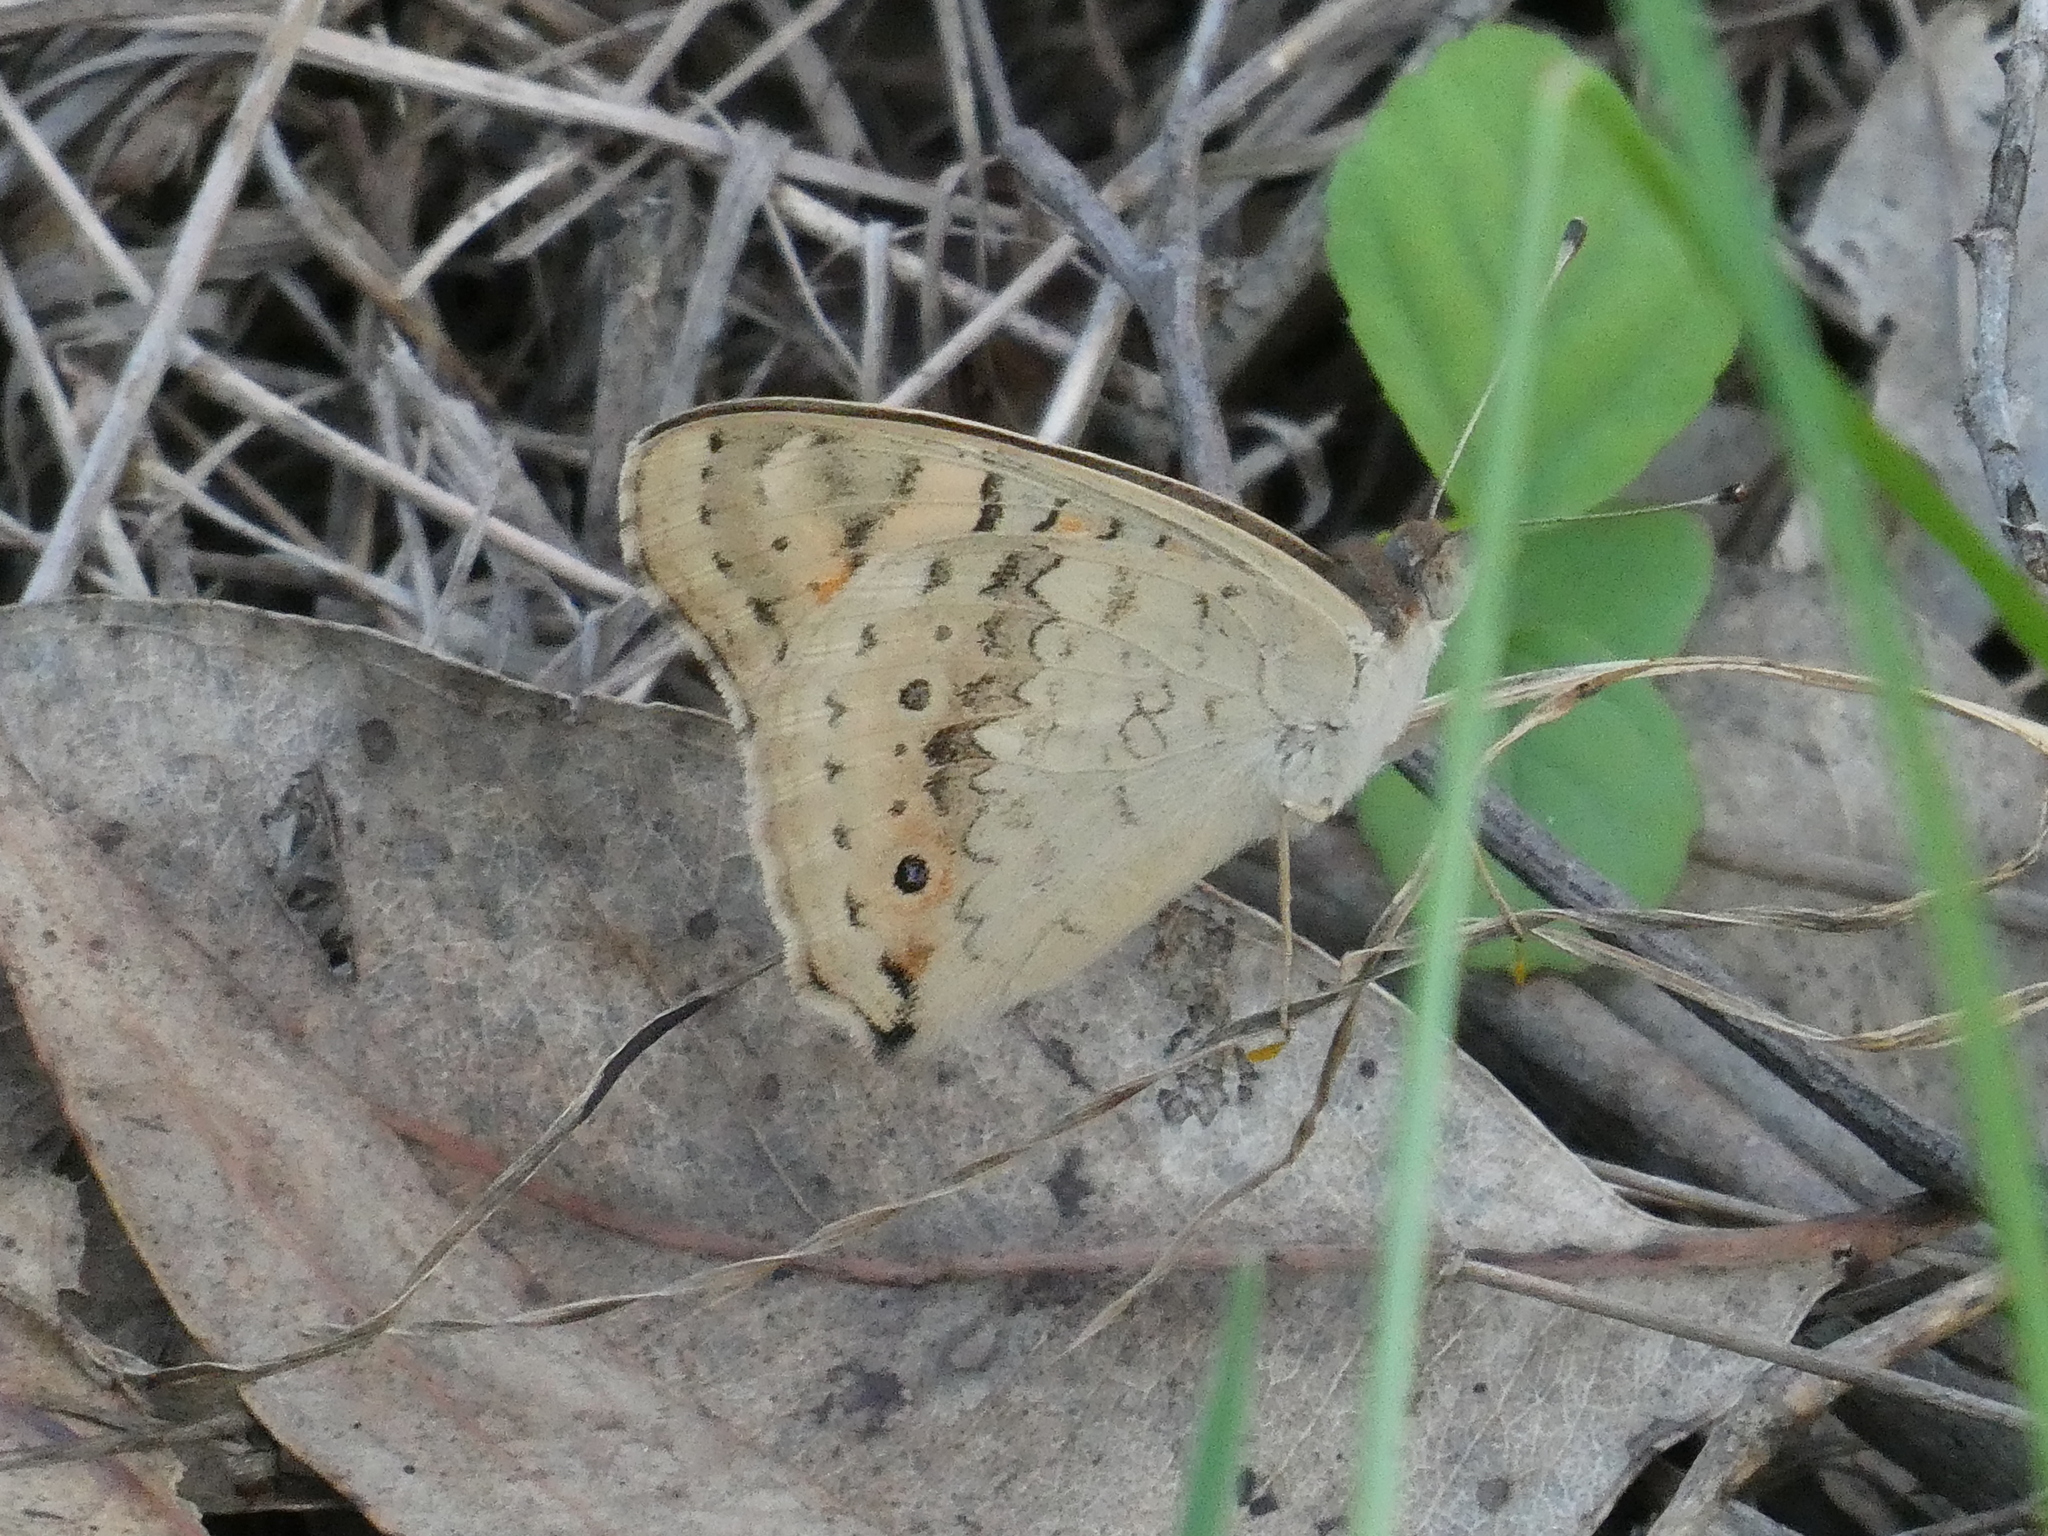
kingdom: Animalia
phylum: Arthropoda
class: Insecta
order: Lepidoptera
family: Nymphalidae
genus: Junonia
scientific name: Junonia villida
